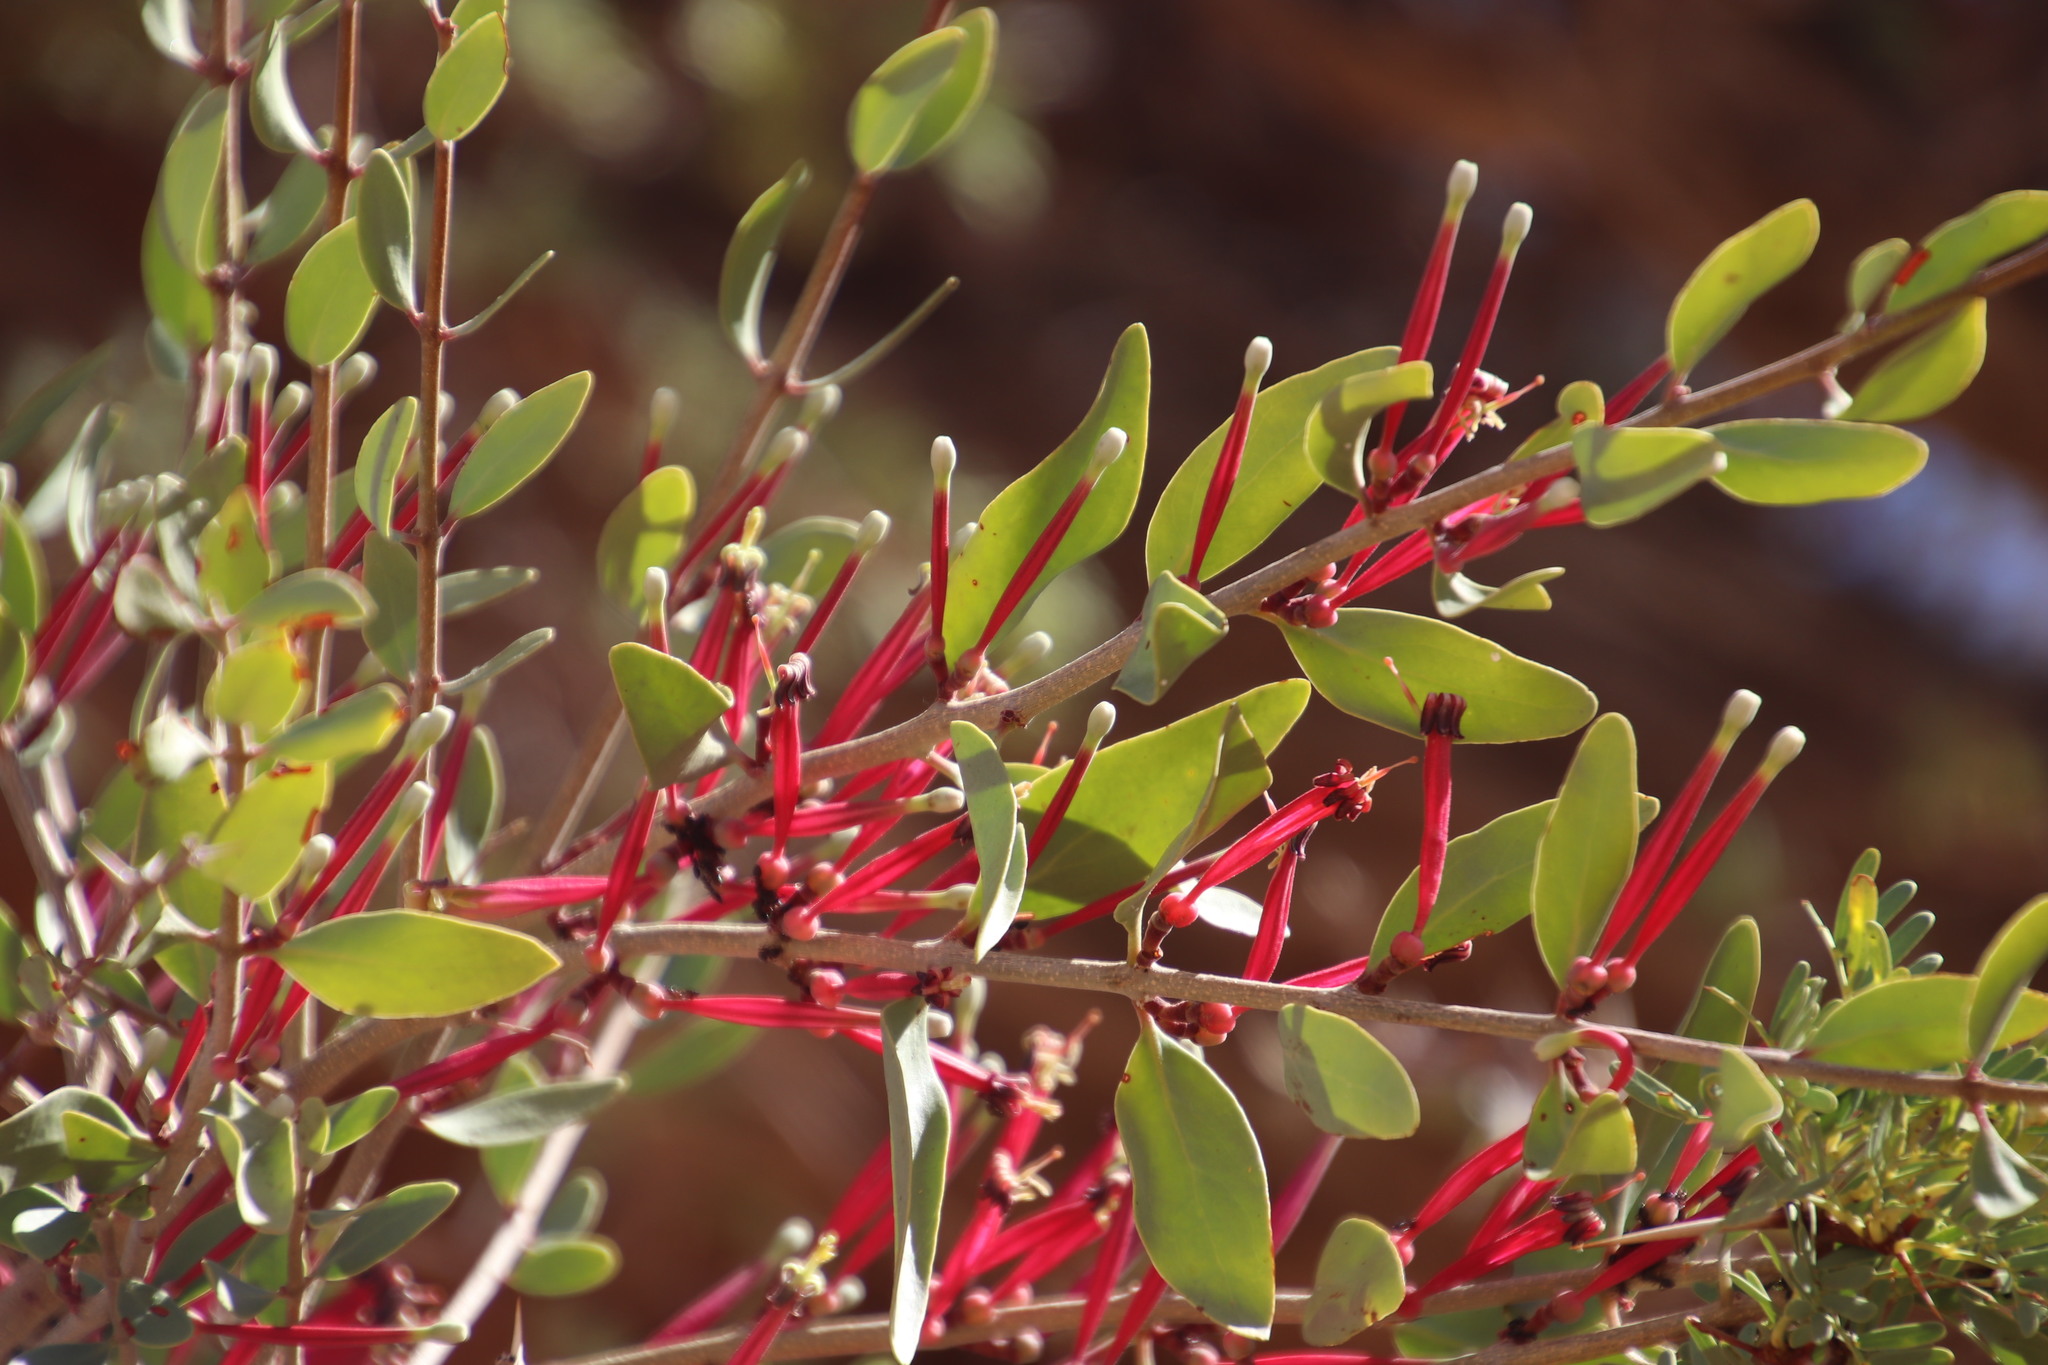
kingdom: Plantae
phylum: Tracheophyta
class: Magnoliopsida
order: Santalales
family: Loranthaceae
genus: Tapinanthus
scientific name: Tapinanthus oleifolius
